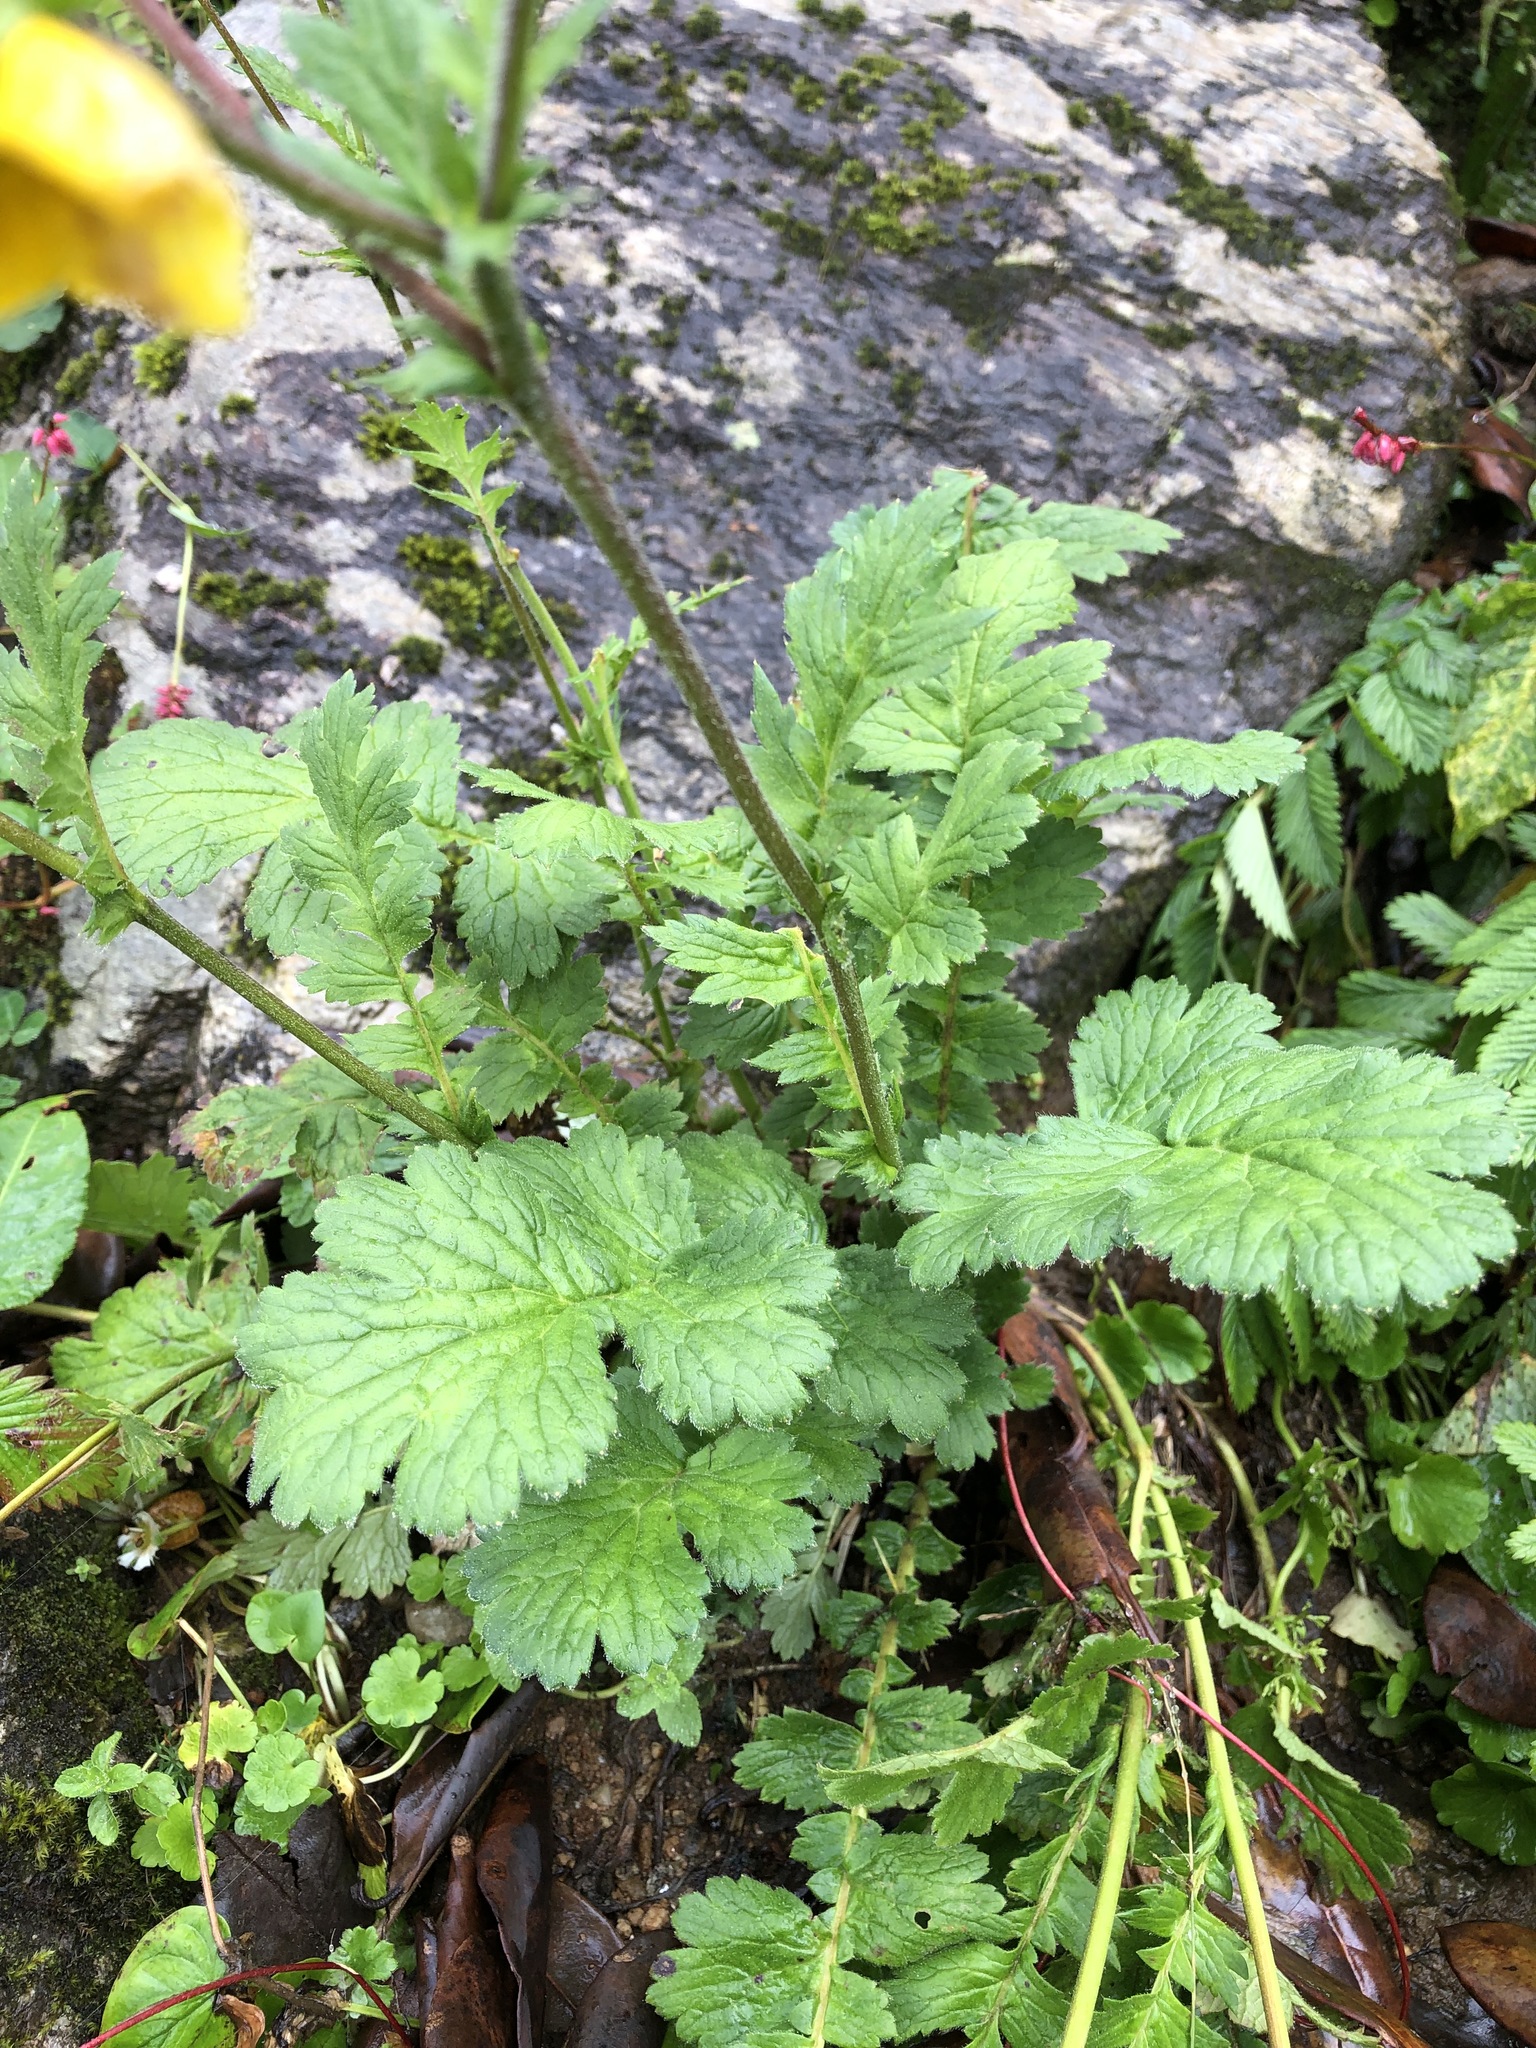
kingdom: Plantae
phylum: Tracheophyta
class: Magnoliopsida
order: Rosales
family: Rosaceae
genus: Geum
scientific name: Geum elatum
